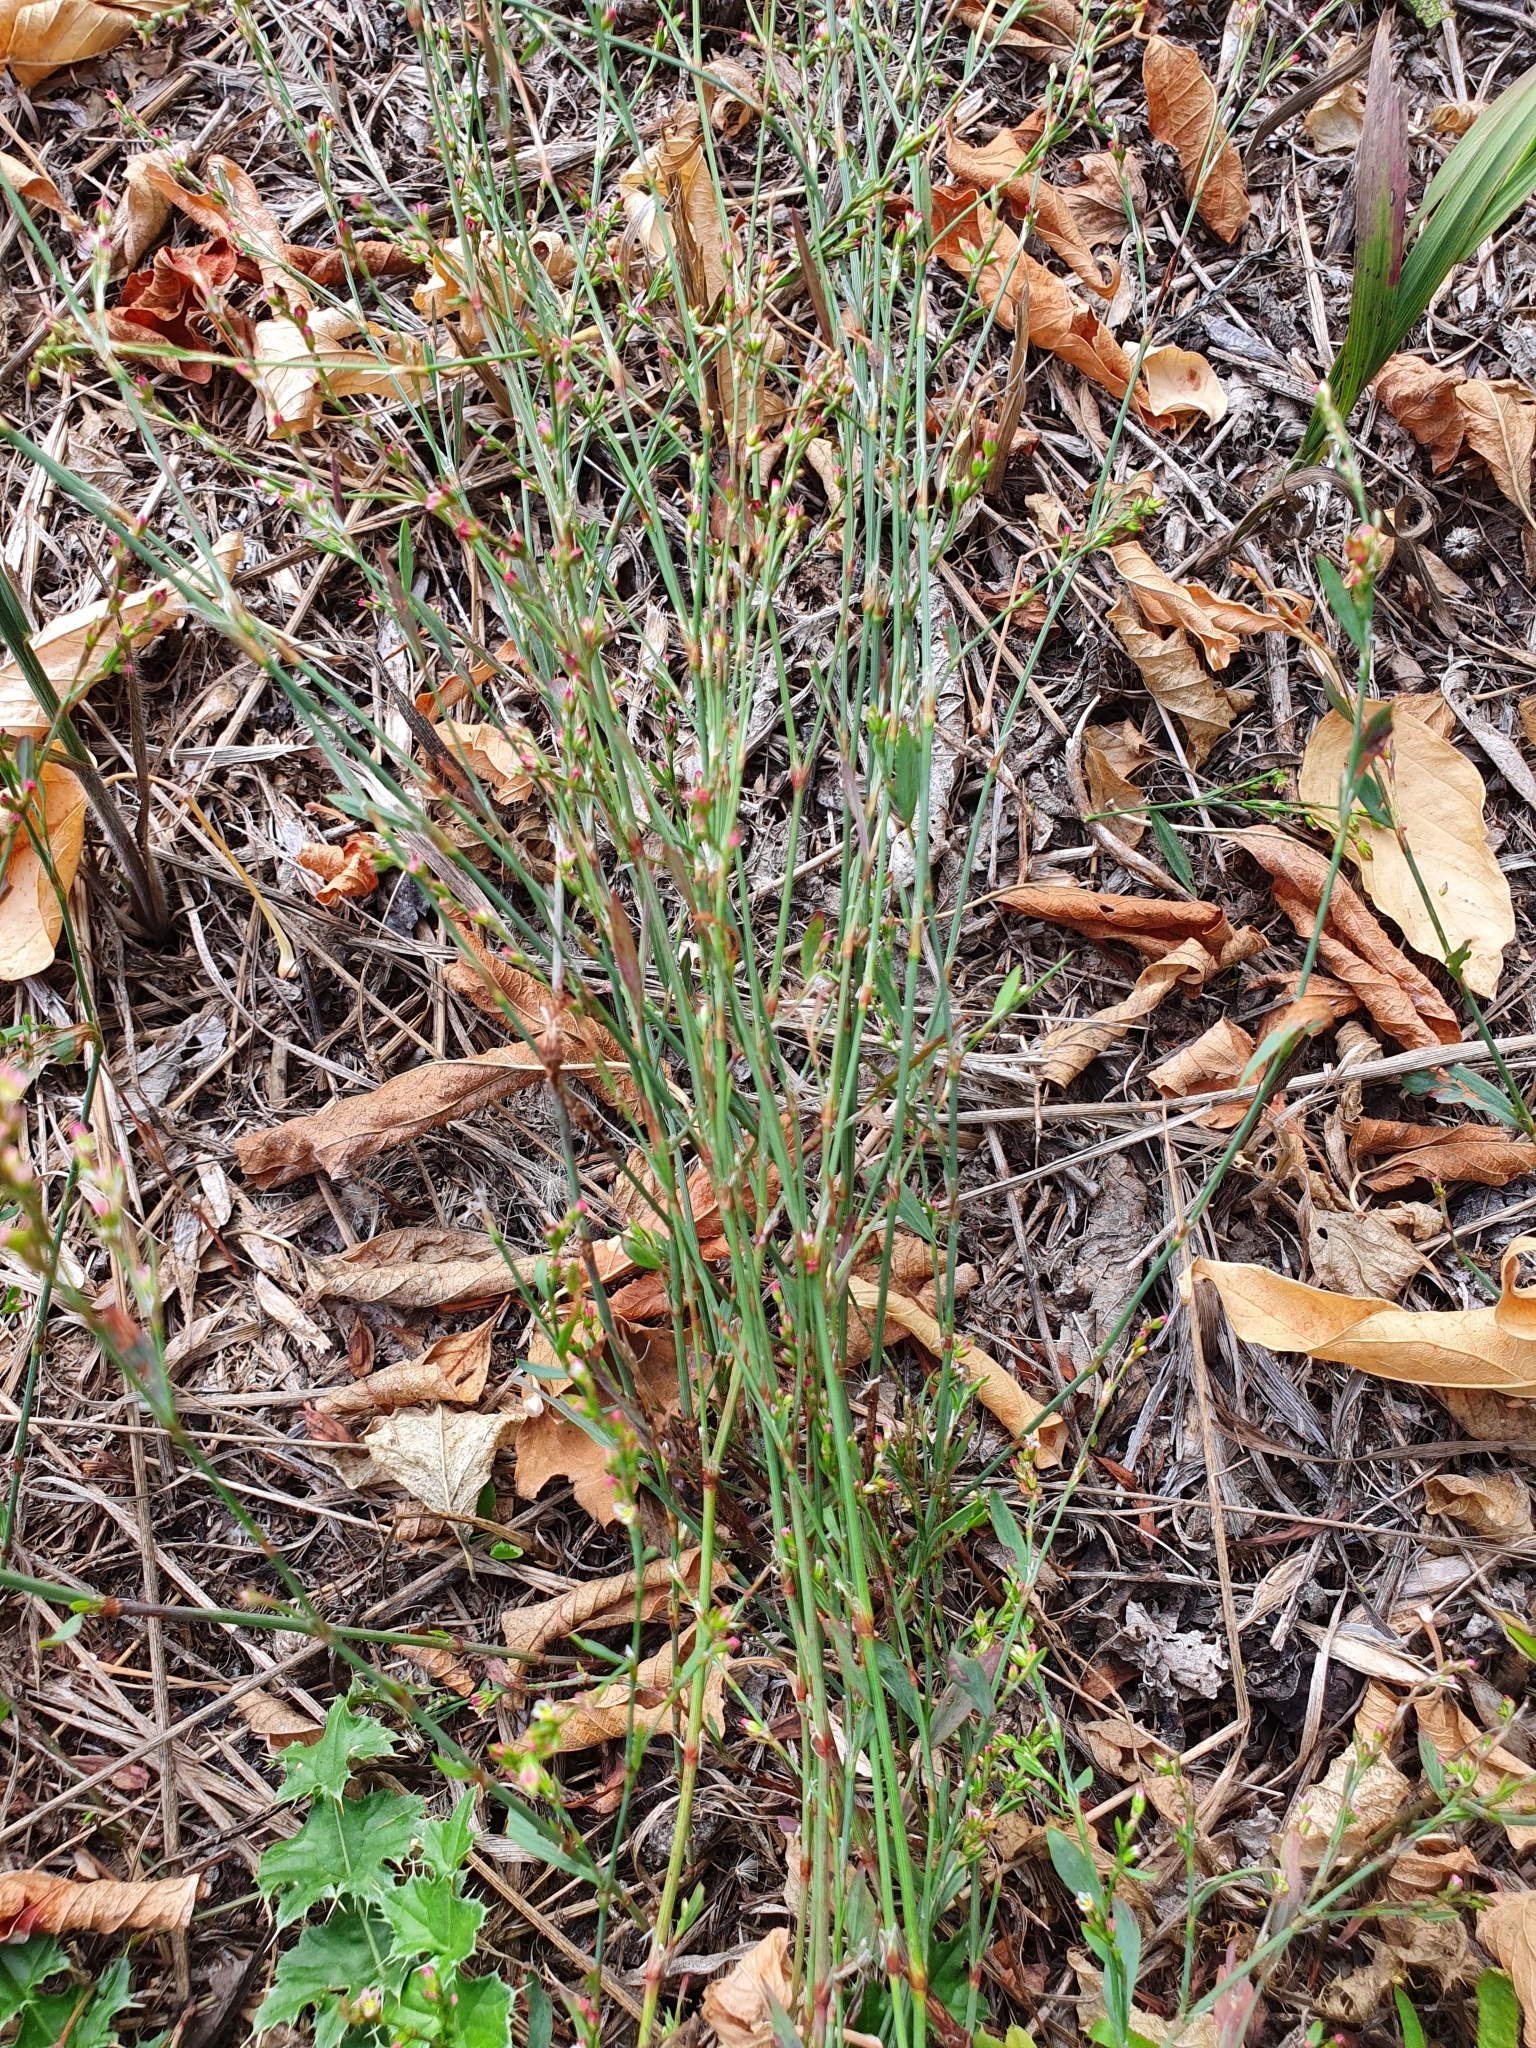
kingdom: Plantae
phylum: Tracheophyta
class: Magnoliopsida
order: Caryophyllales
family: Polygonaceae
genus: Polygonum
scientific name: Polygonum aviculare
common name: Prostrate knotweed
